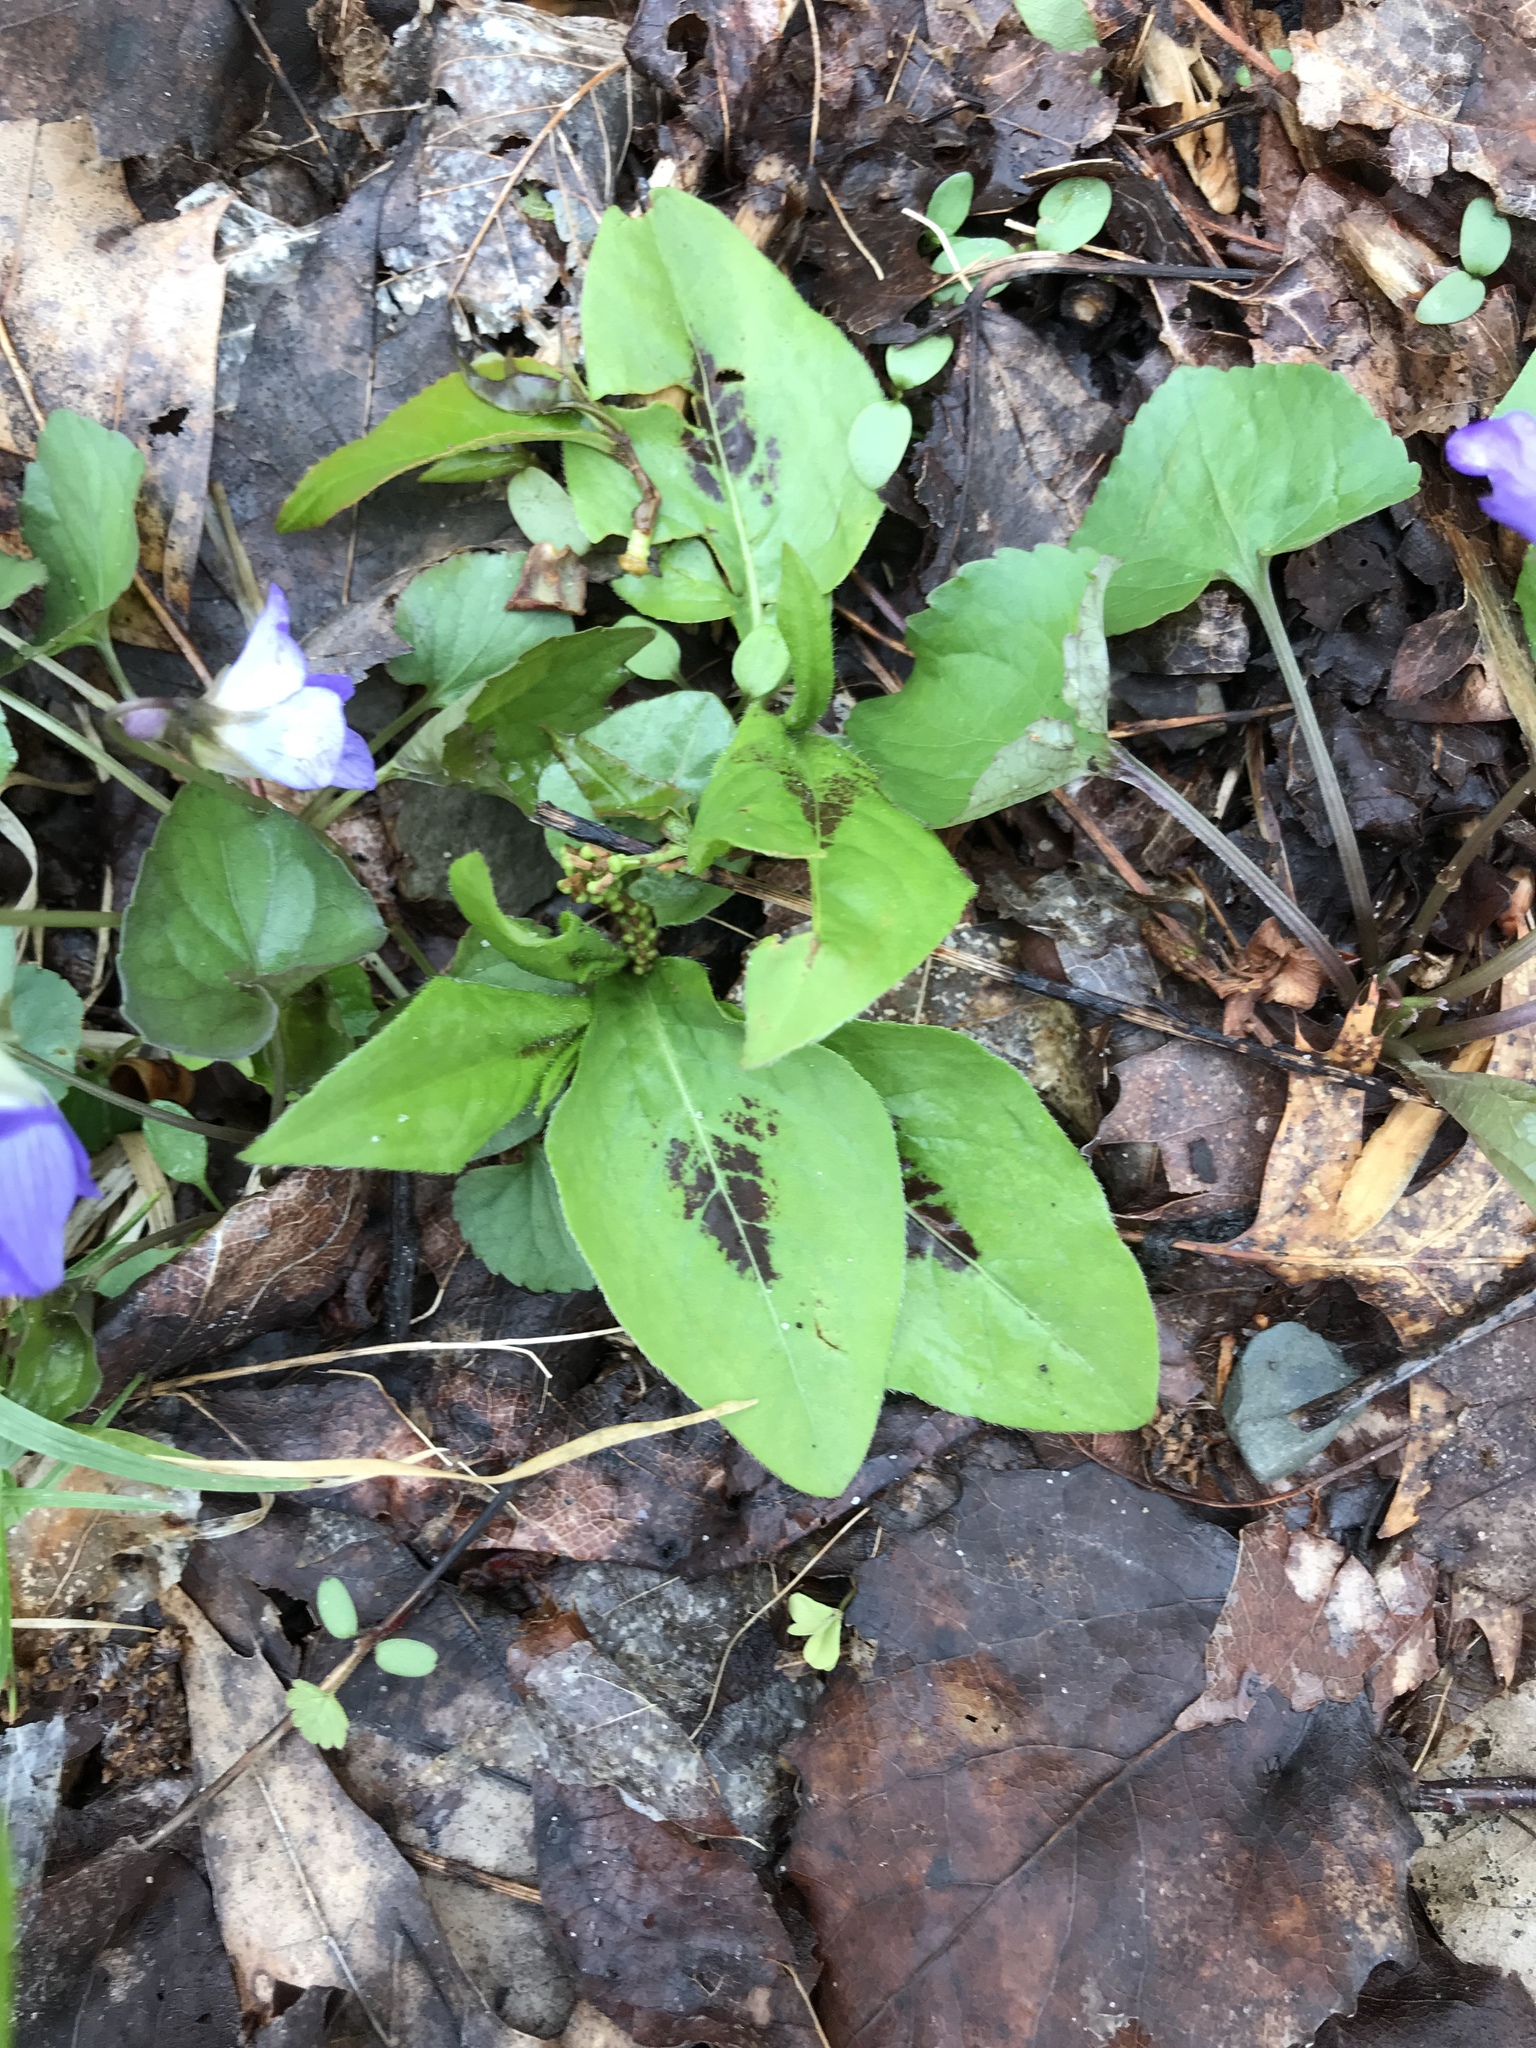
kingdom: Plantae
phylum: Tracheophyta
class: Magnoliopsida
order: Caryophyllales
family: Polygonaceae
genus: Persicaria
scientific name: Persicaria virginiana
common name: Jumpseed
